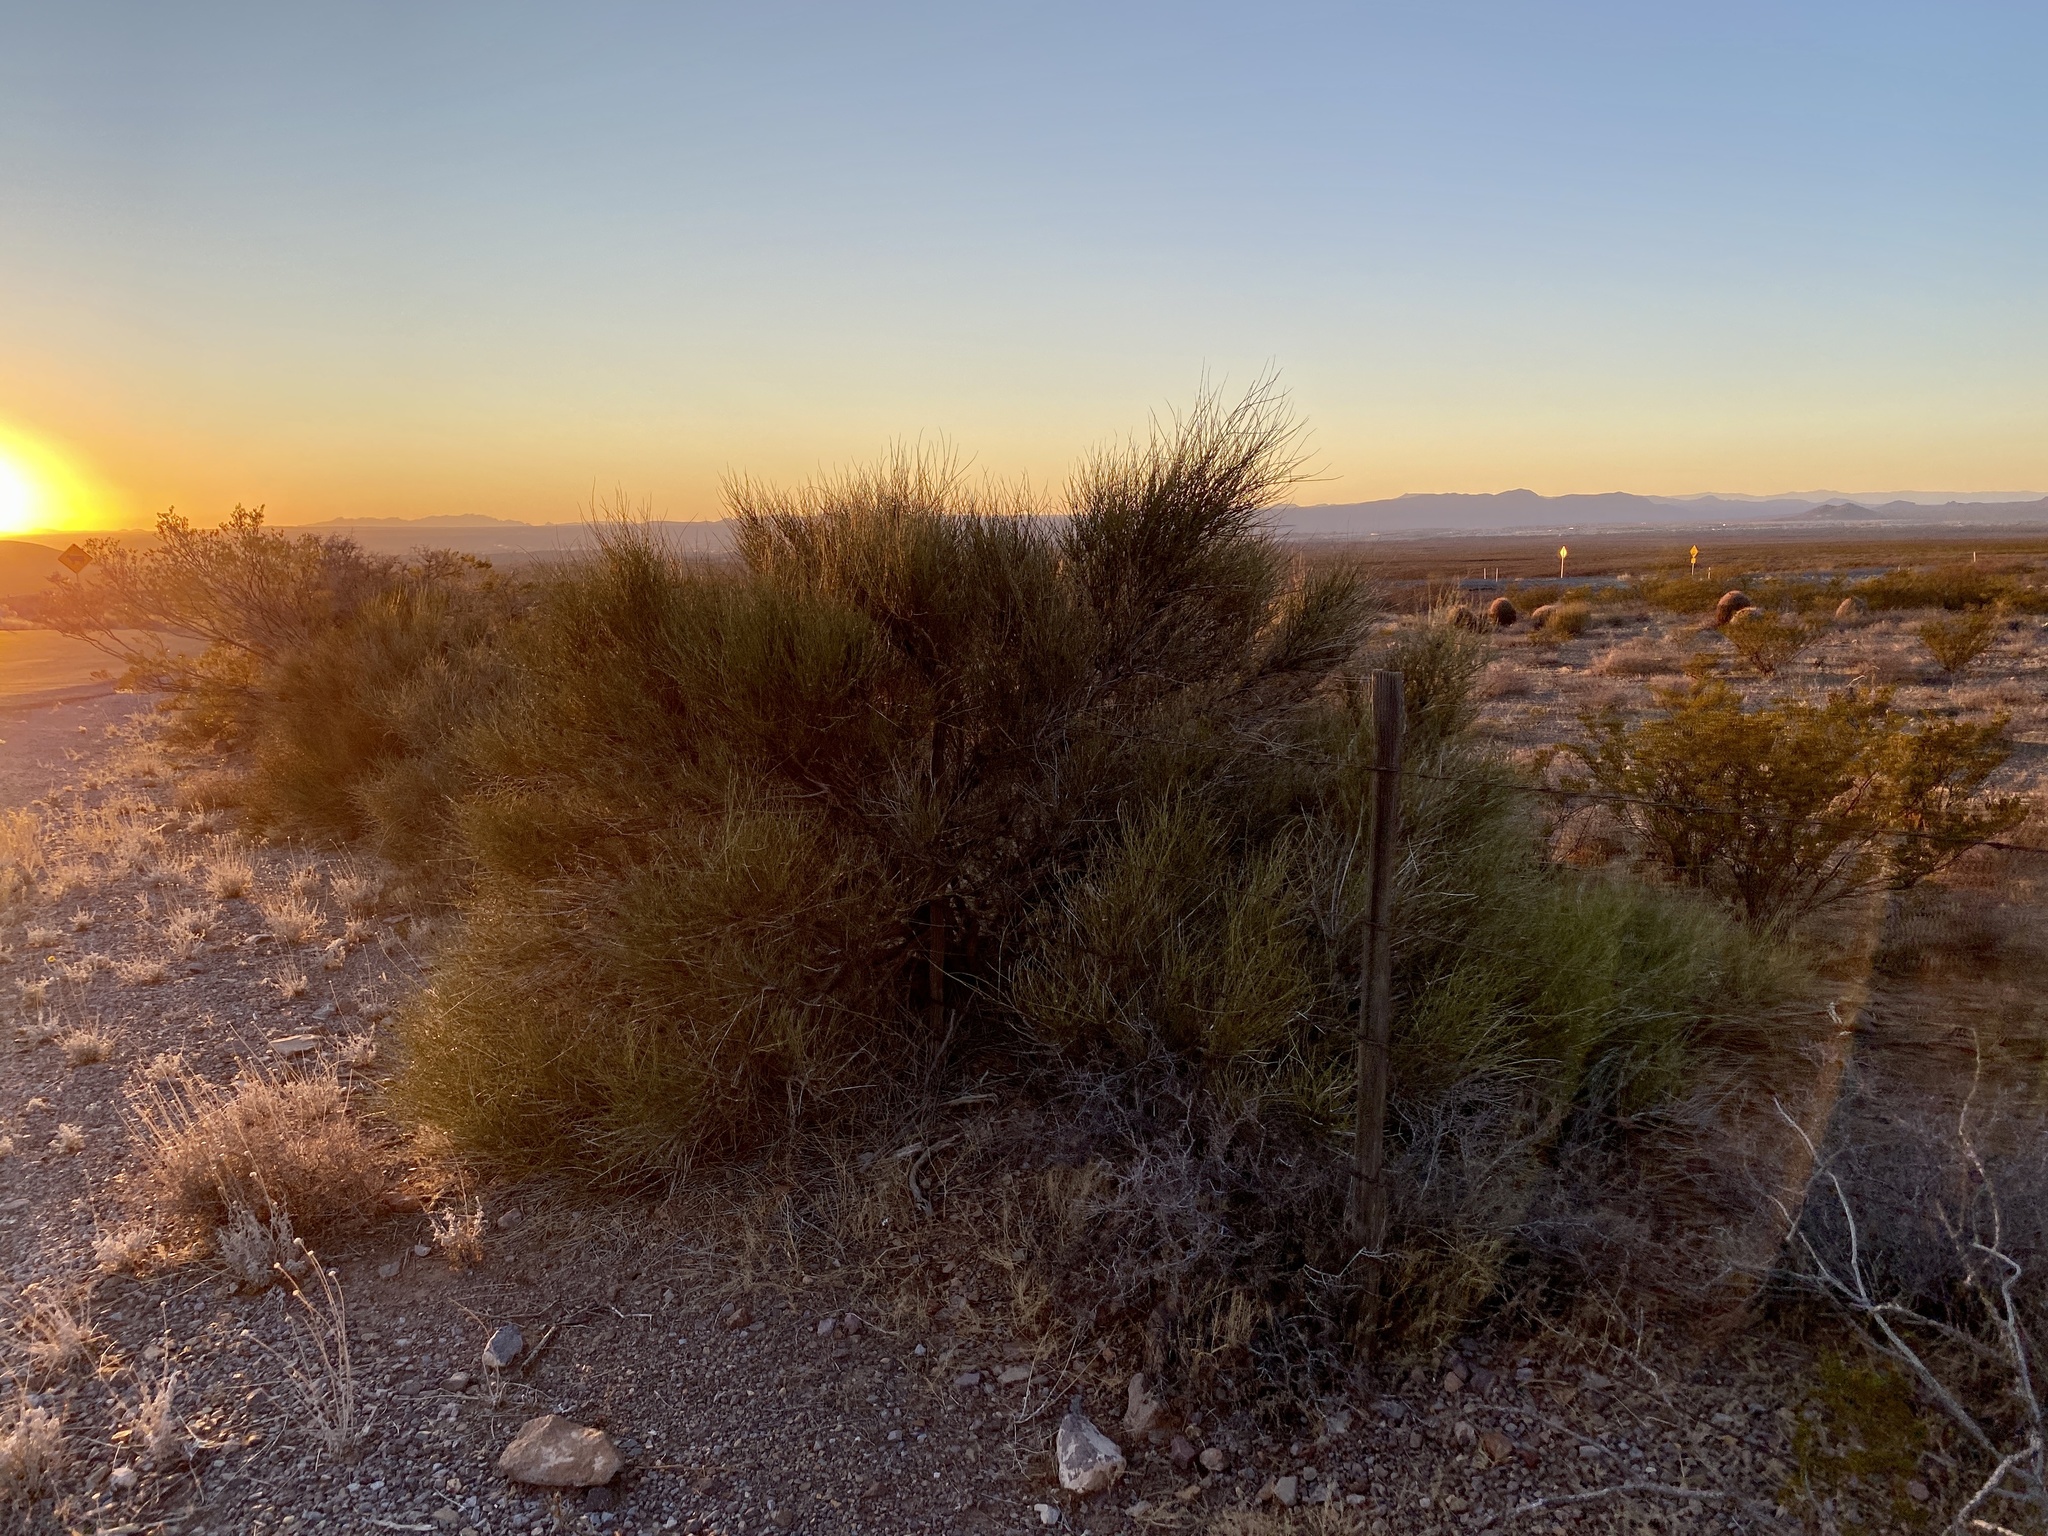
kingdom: Plantae
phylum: Tracheophyta
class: Gnetopsida
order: Ephedrales
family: Ephedraceae
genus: Ephedra
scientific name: Ephedra trifurca
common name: Mexican-tea
